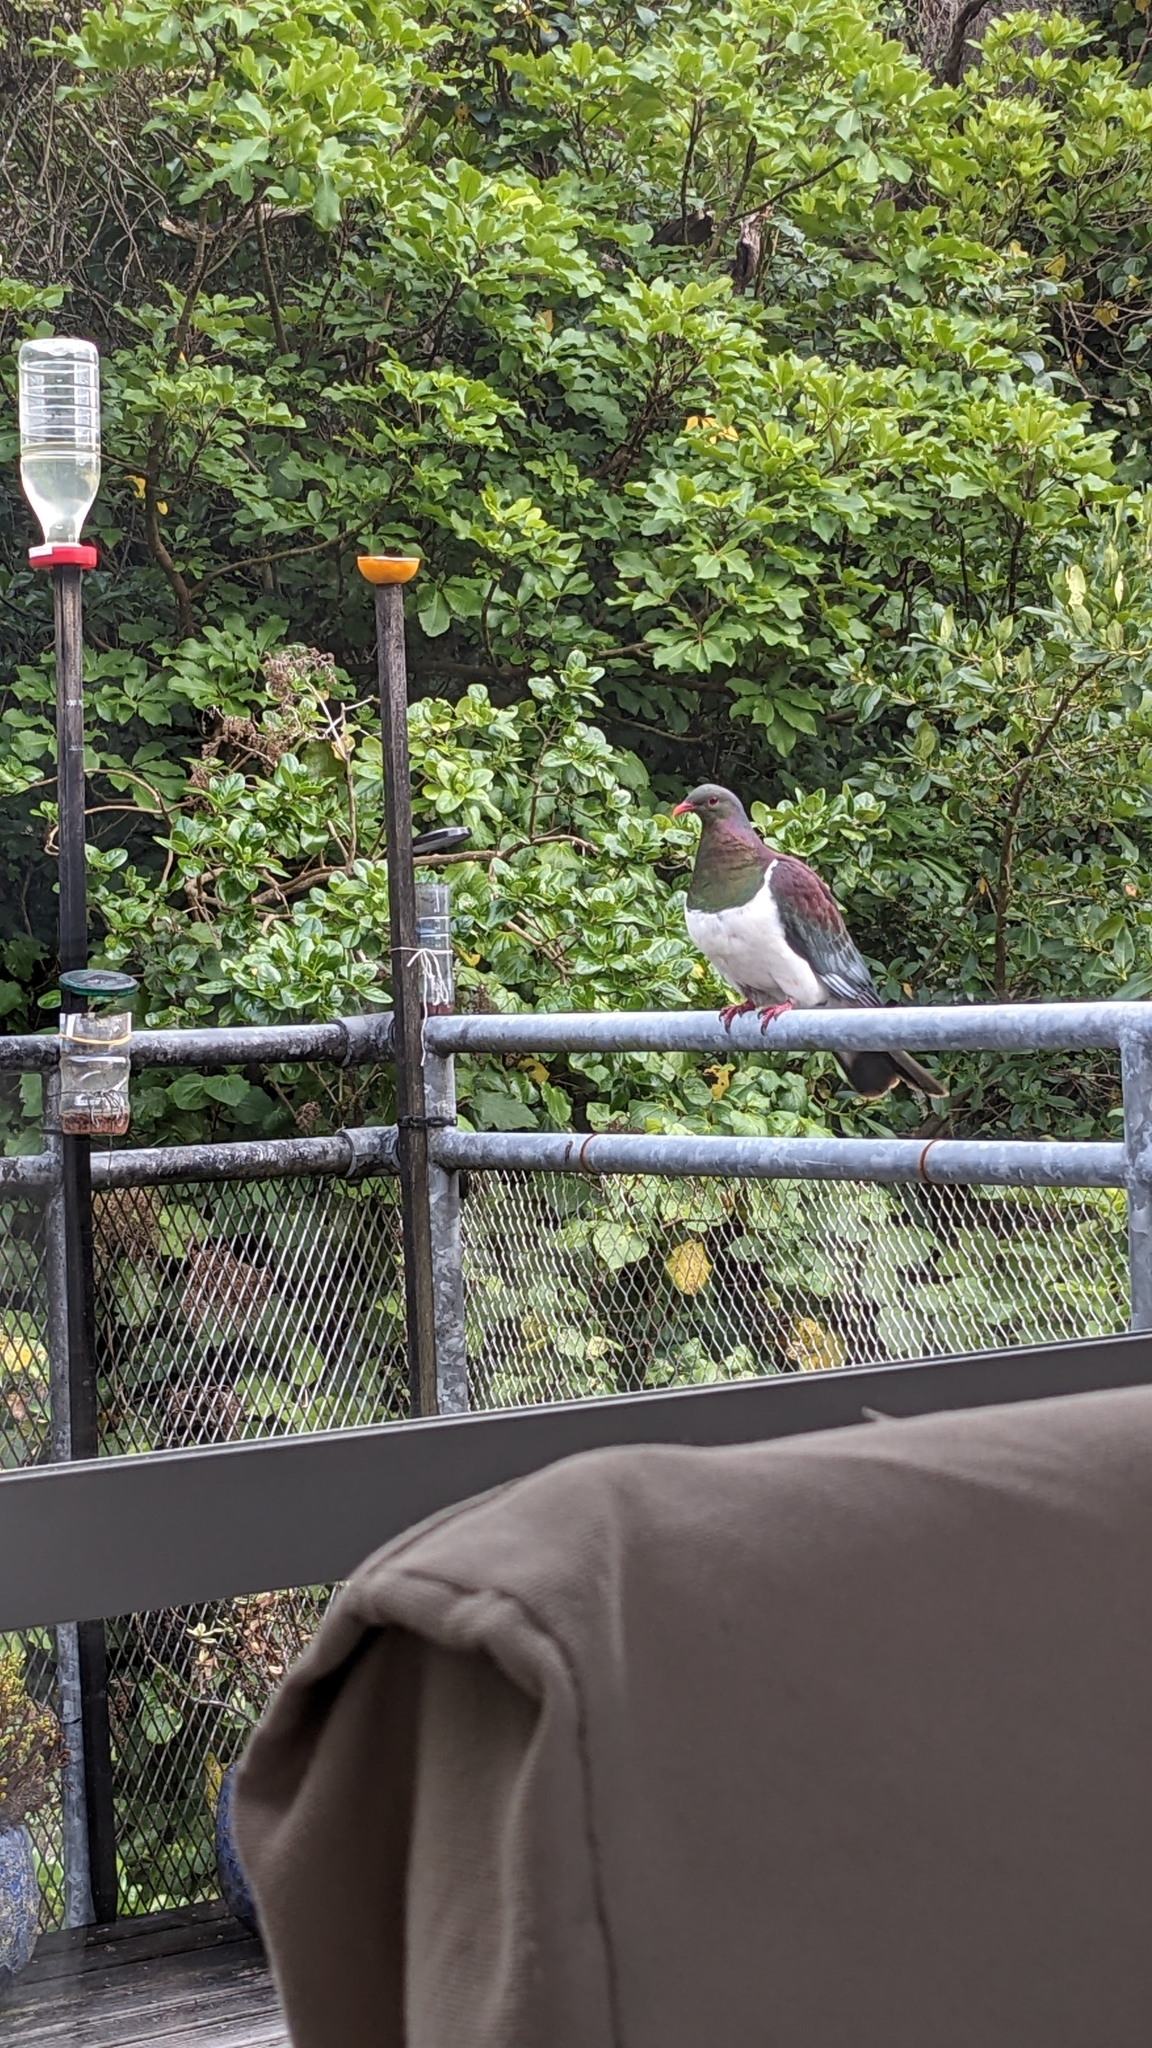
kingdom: Animalia
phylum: Chordata
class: Aves
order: Columbiformes
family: Columbidae
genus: Hemiphaga
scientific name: Hemiphaga novaeseelandiae
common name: New zealand pigeon
